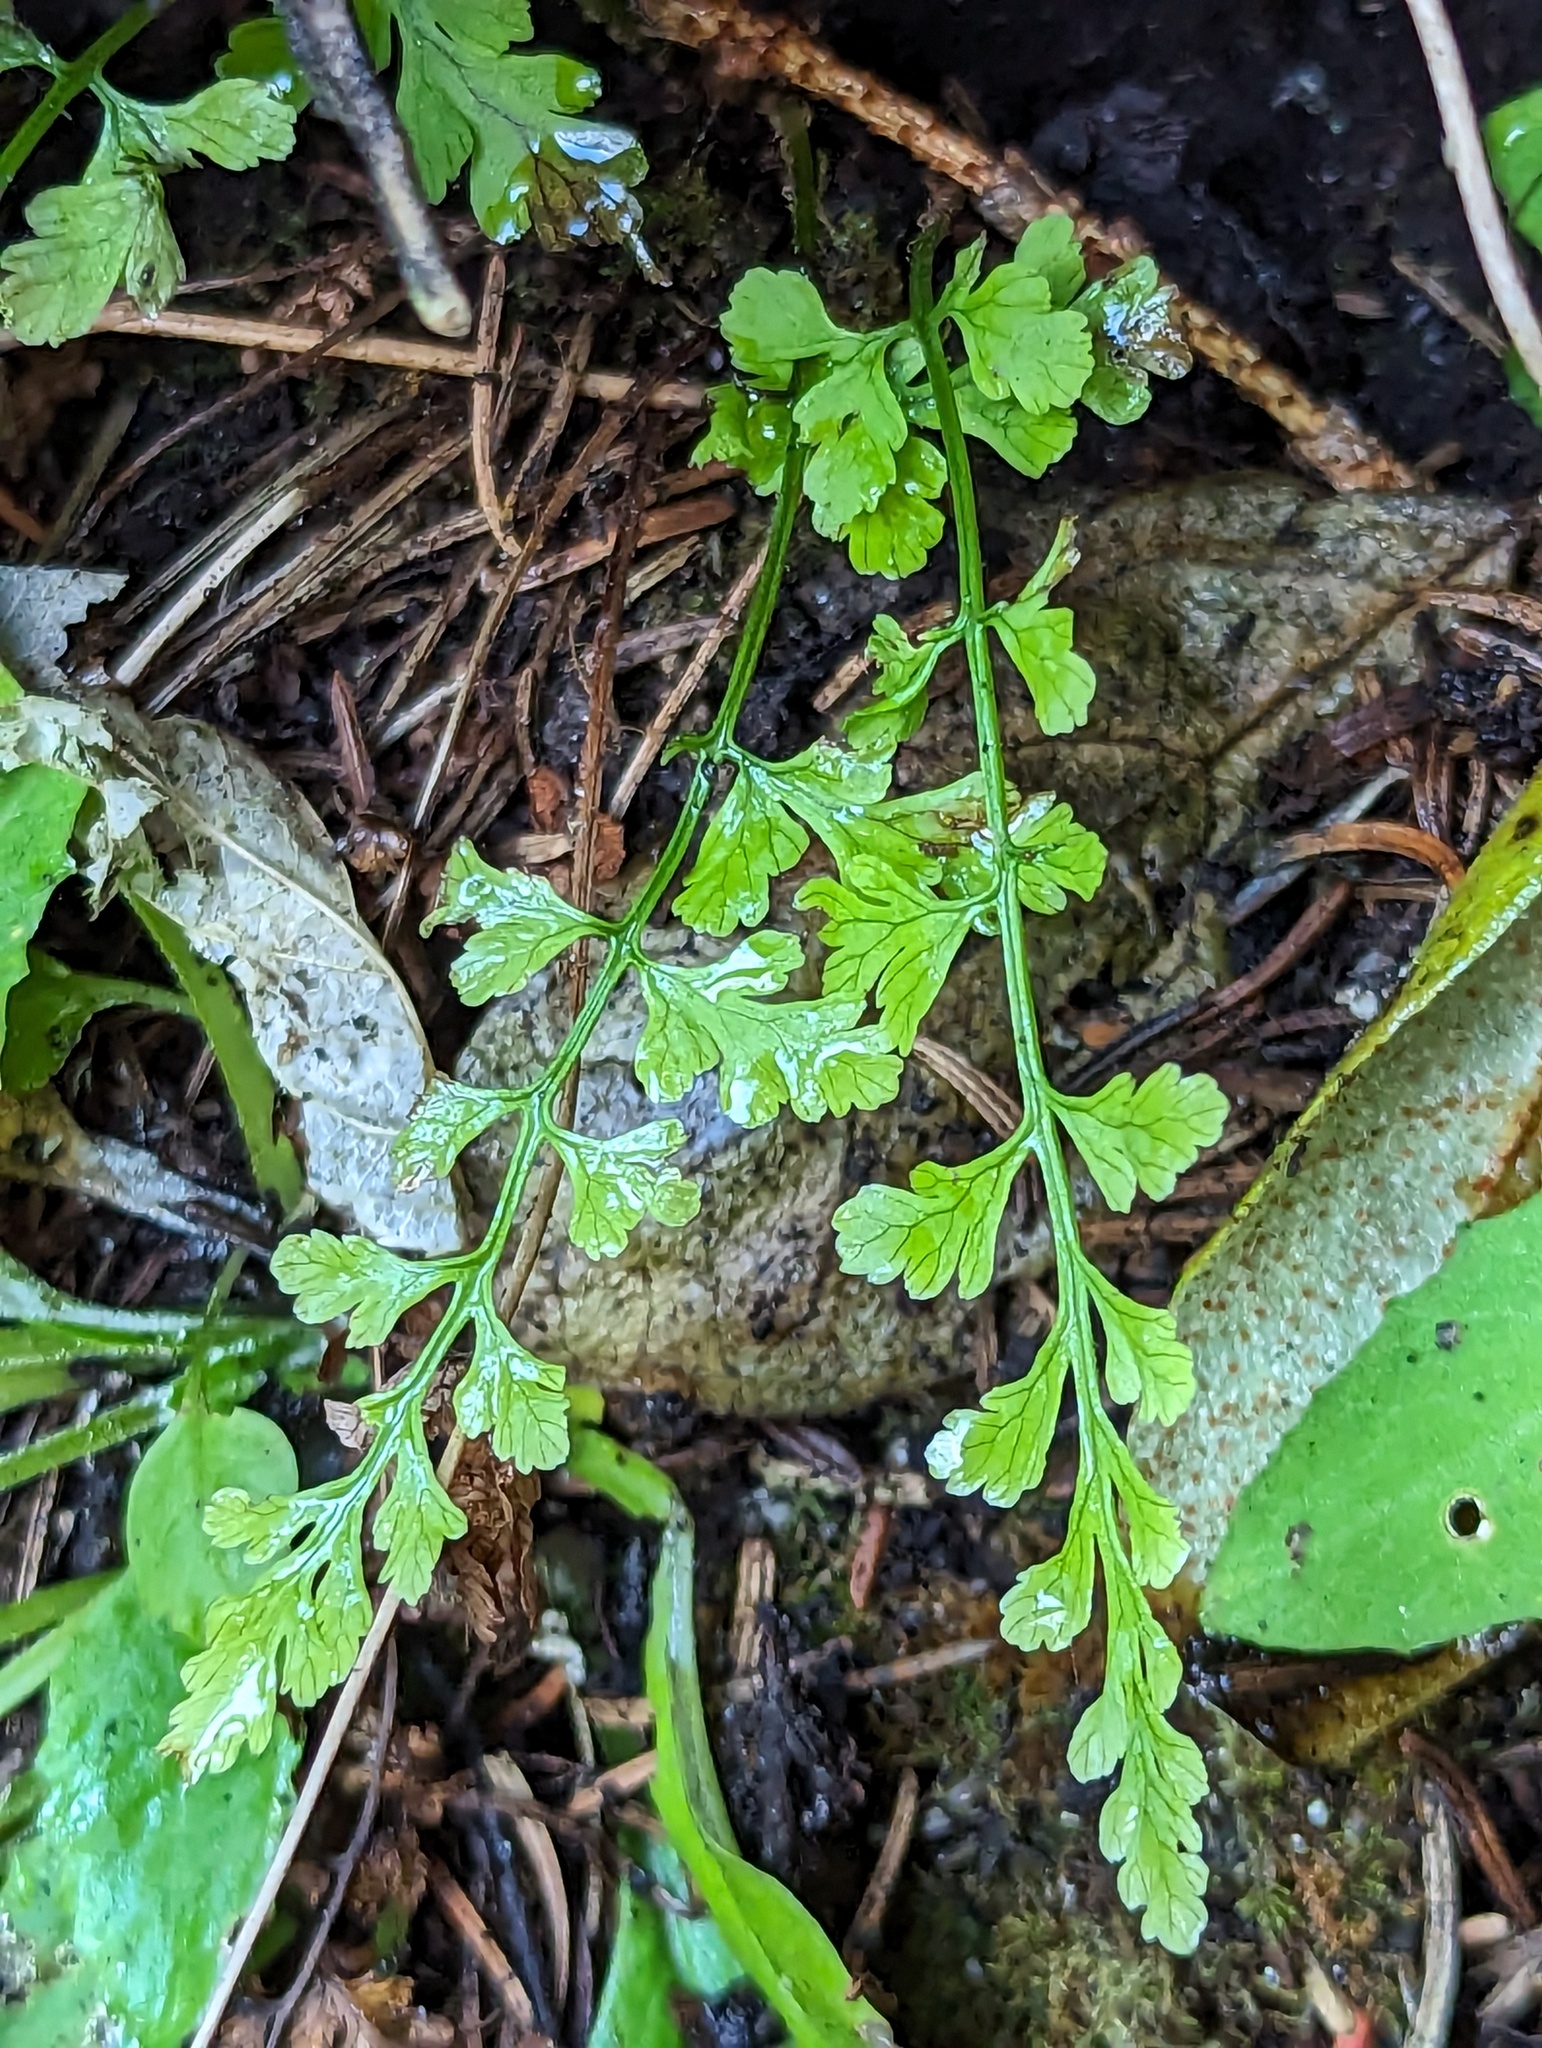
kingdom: Plantae
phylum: Tracheophyta
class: Polypodiopsida
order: Polypodiales
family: Pteridaceae
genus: Cryptogramma
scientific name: Cryptogramma stelleri
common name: Cliff-brake
